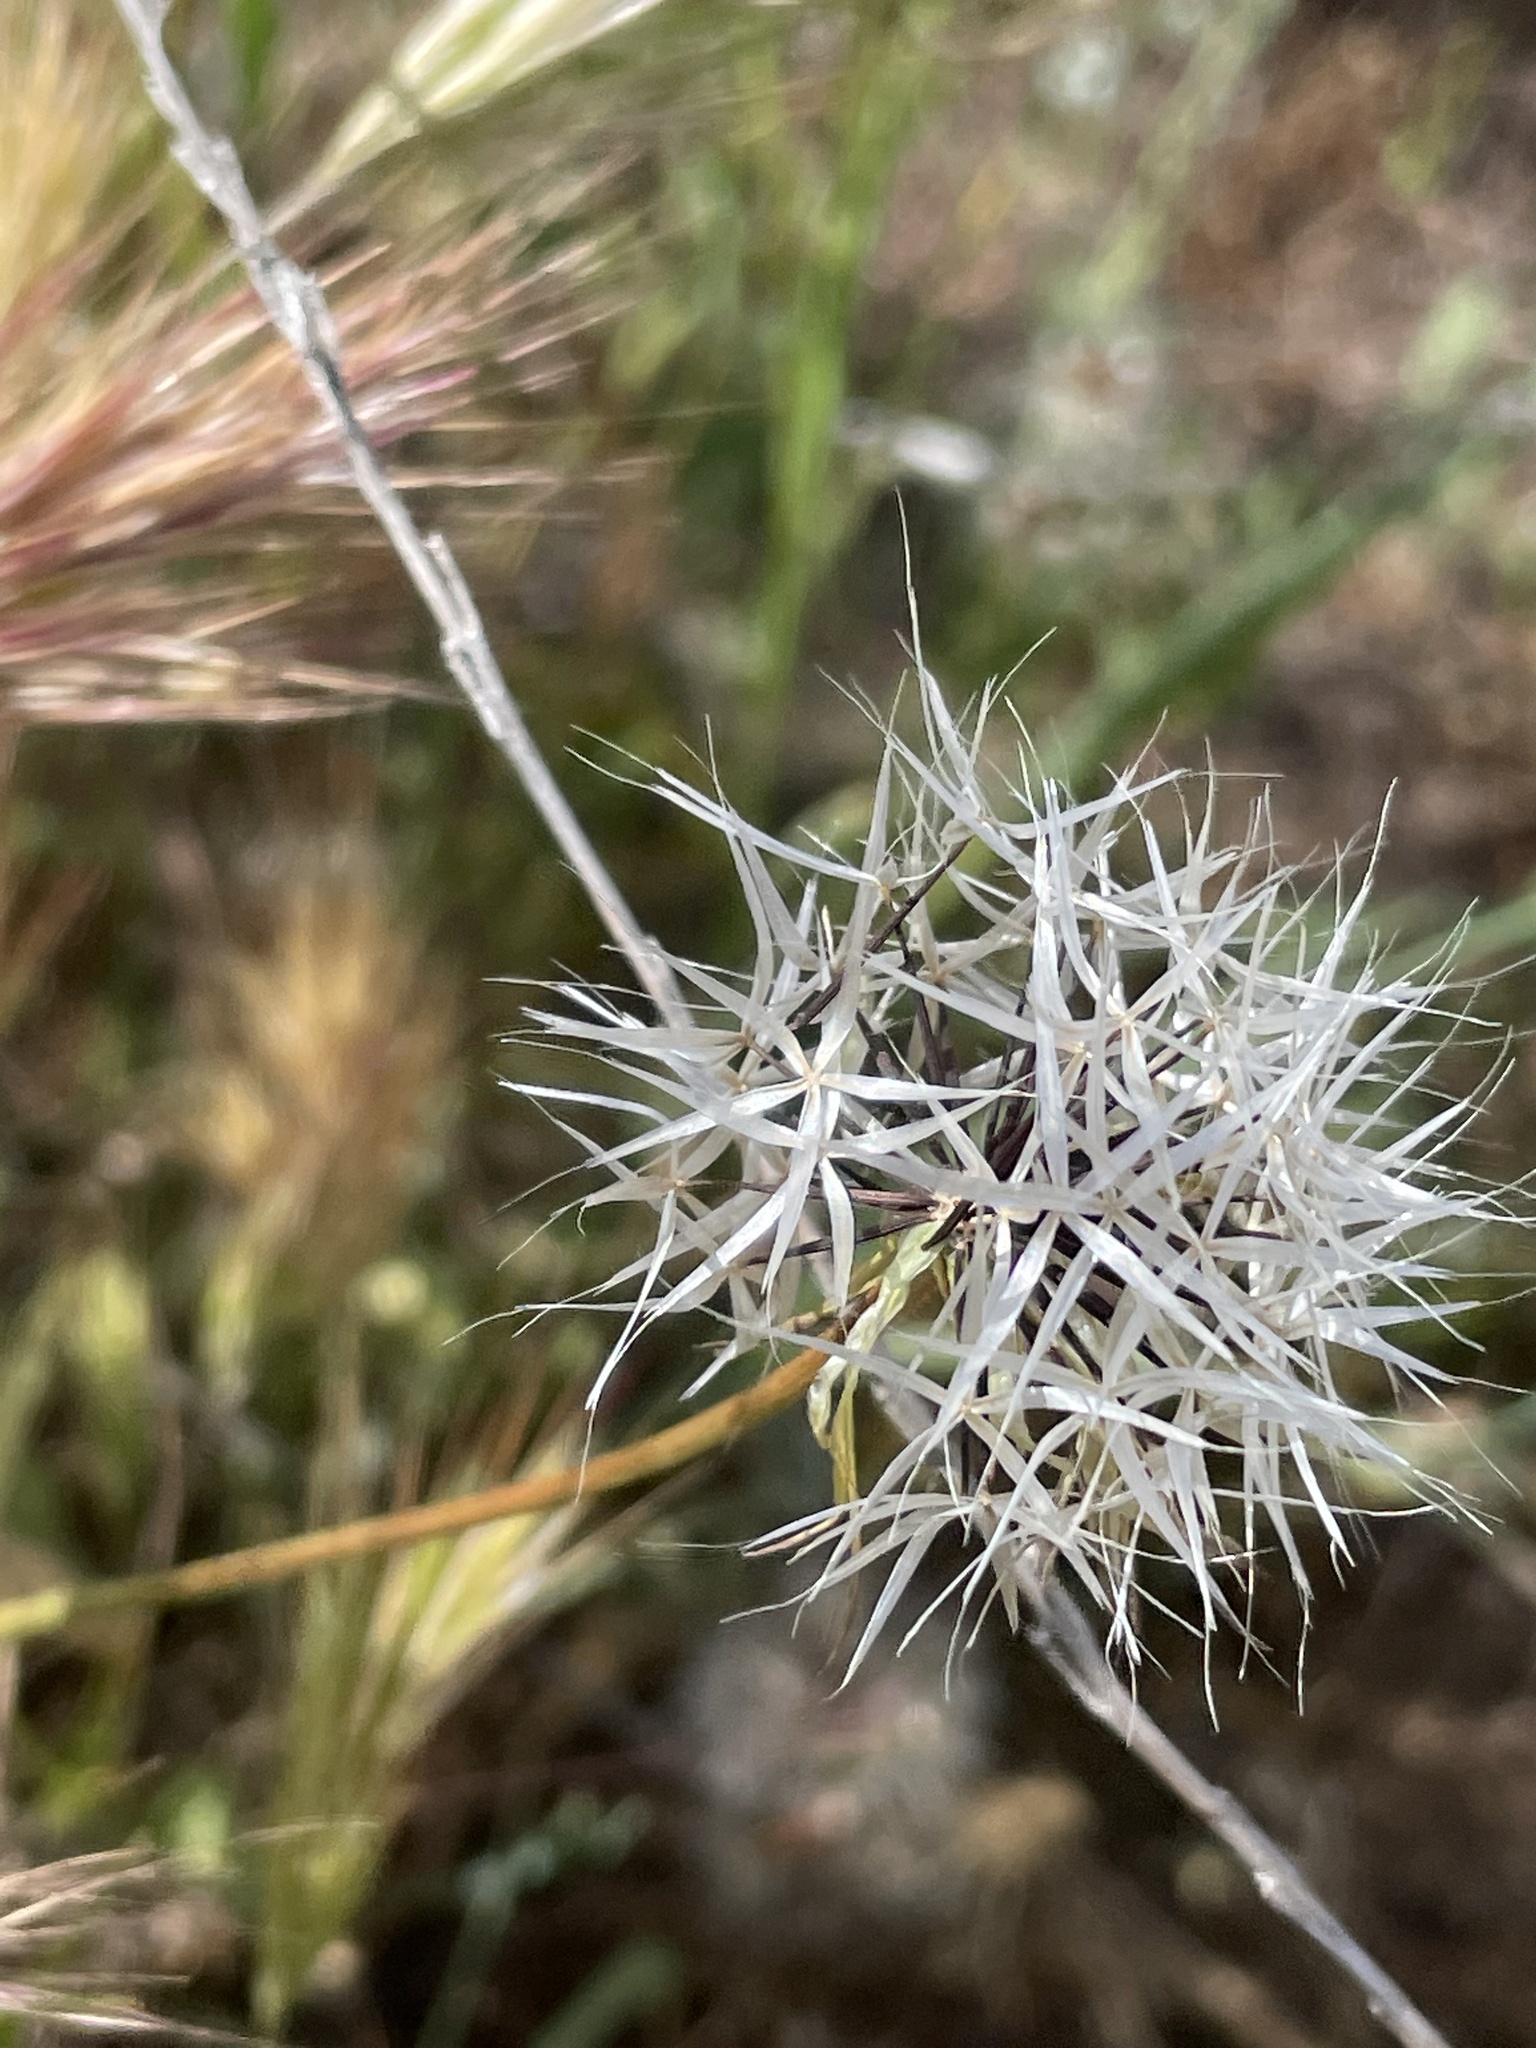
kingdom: Plantae
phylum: Tracheophyta
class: Magnoliopsida
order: Asterales
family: Asteraceae
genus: Microseris
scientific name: Microseris lindleyi
